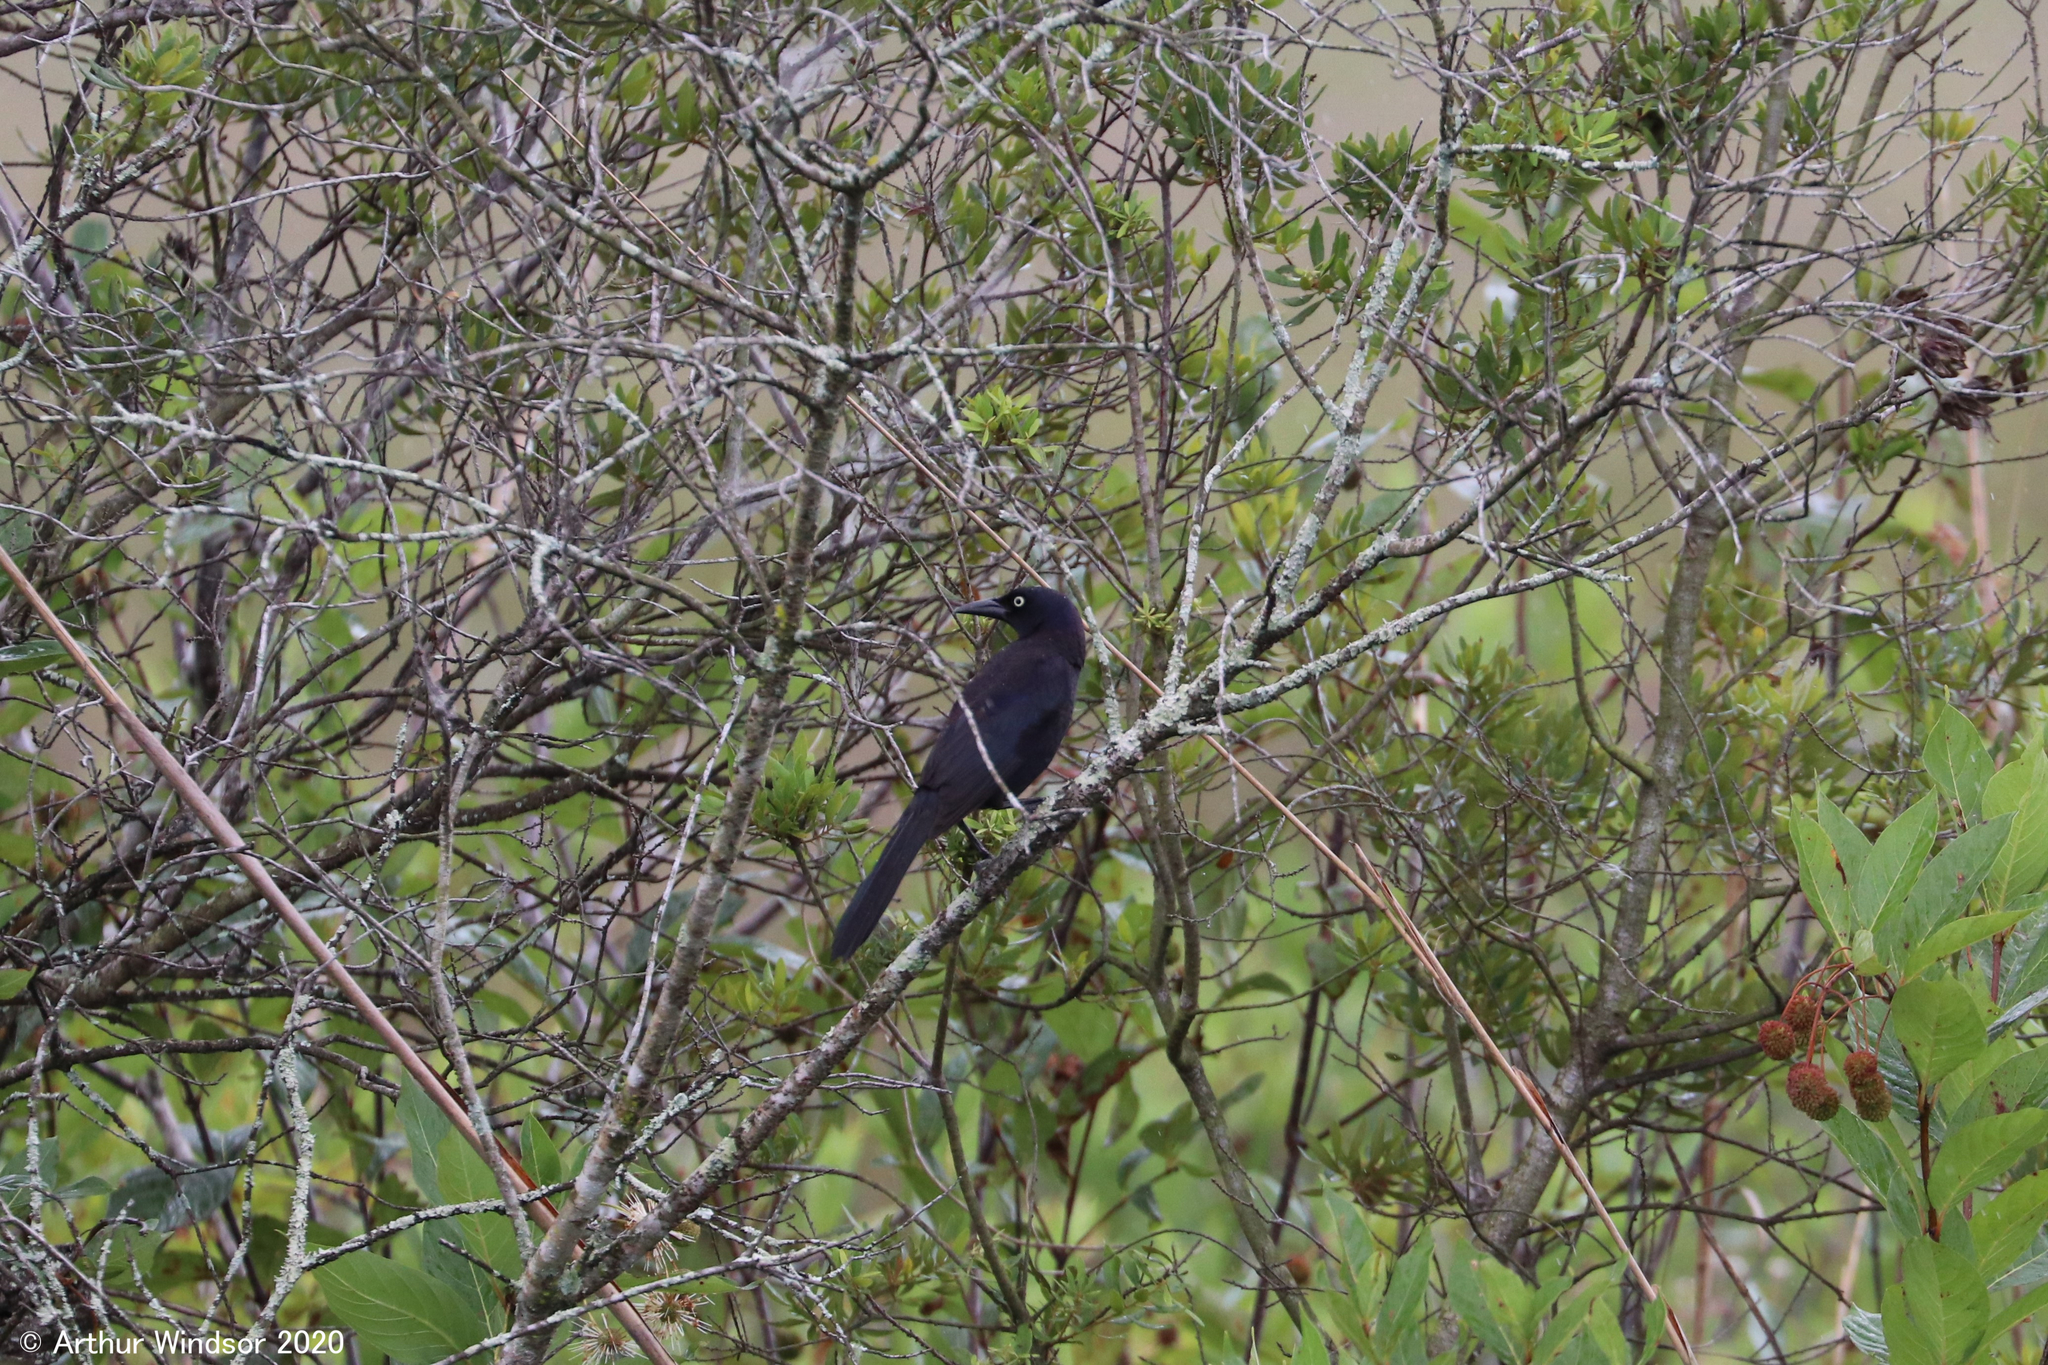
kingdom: Animalia
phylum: Chordata
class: Aves
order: Passeriformes
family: Icteridae
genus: Quiscalus
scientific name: Quiscalus quiscula
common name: Common grackle
